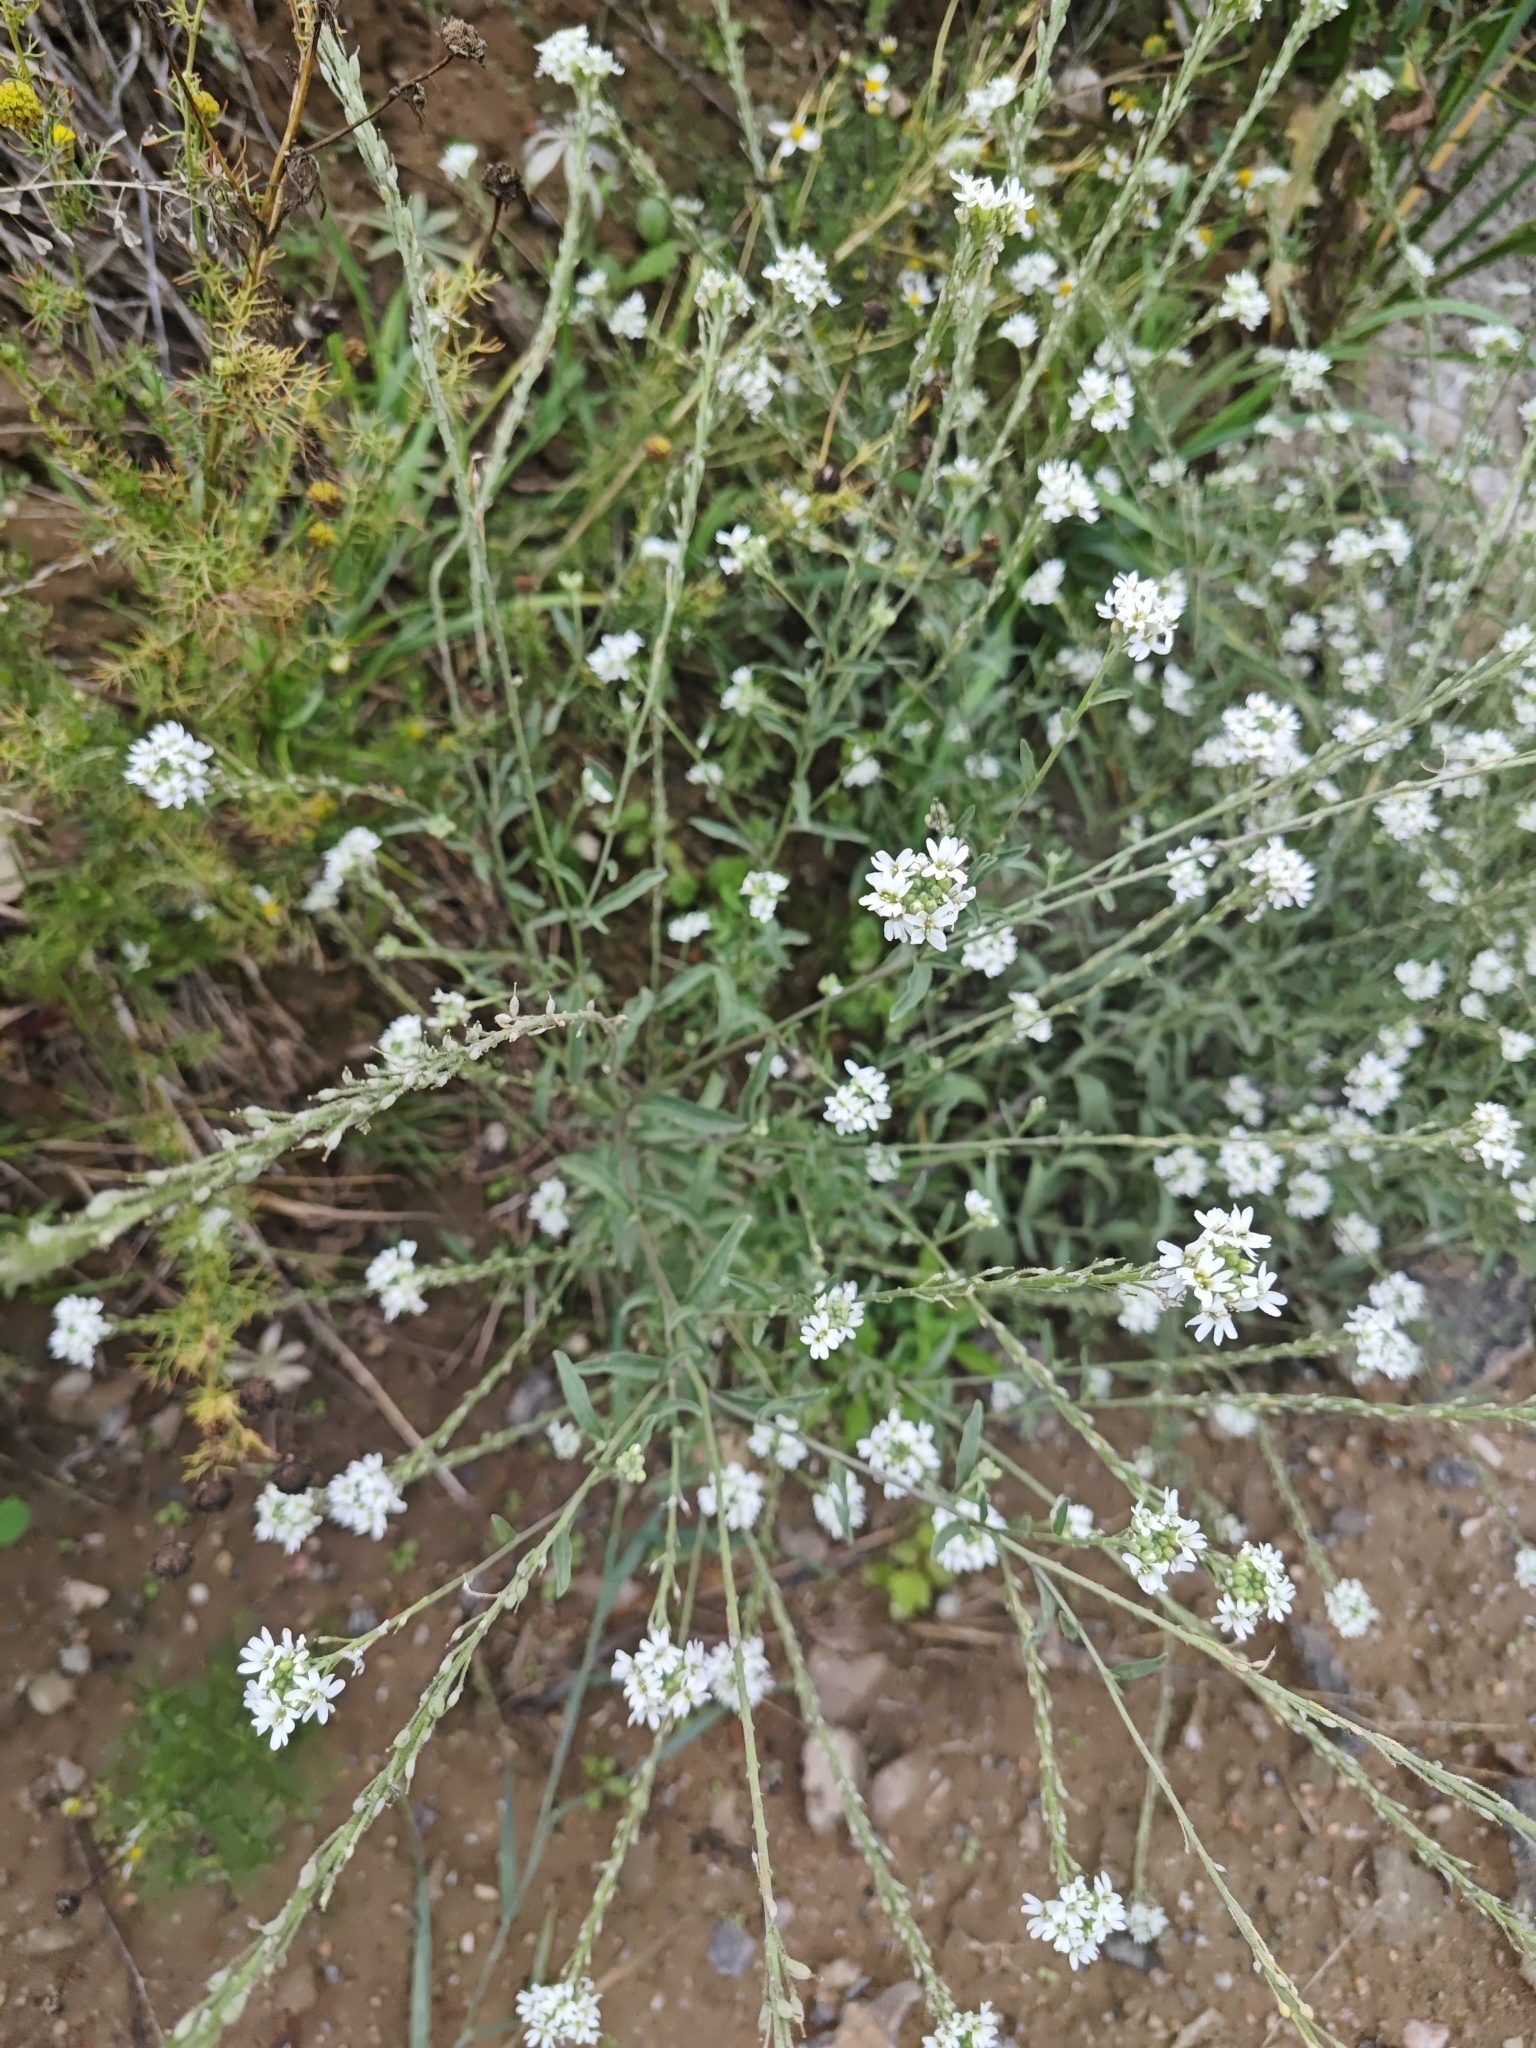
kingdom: Plantae
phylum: Tracheophyta
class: Magnoliopsida
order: Brassicales
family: Brassicaceae
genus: Berteroa
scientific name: Berteroa incana
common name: Hoary alison
